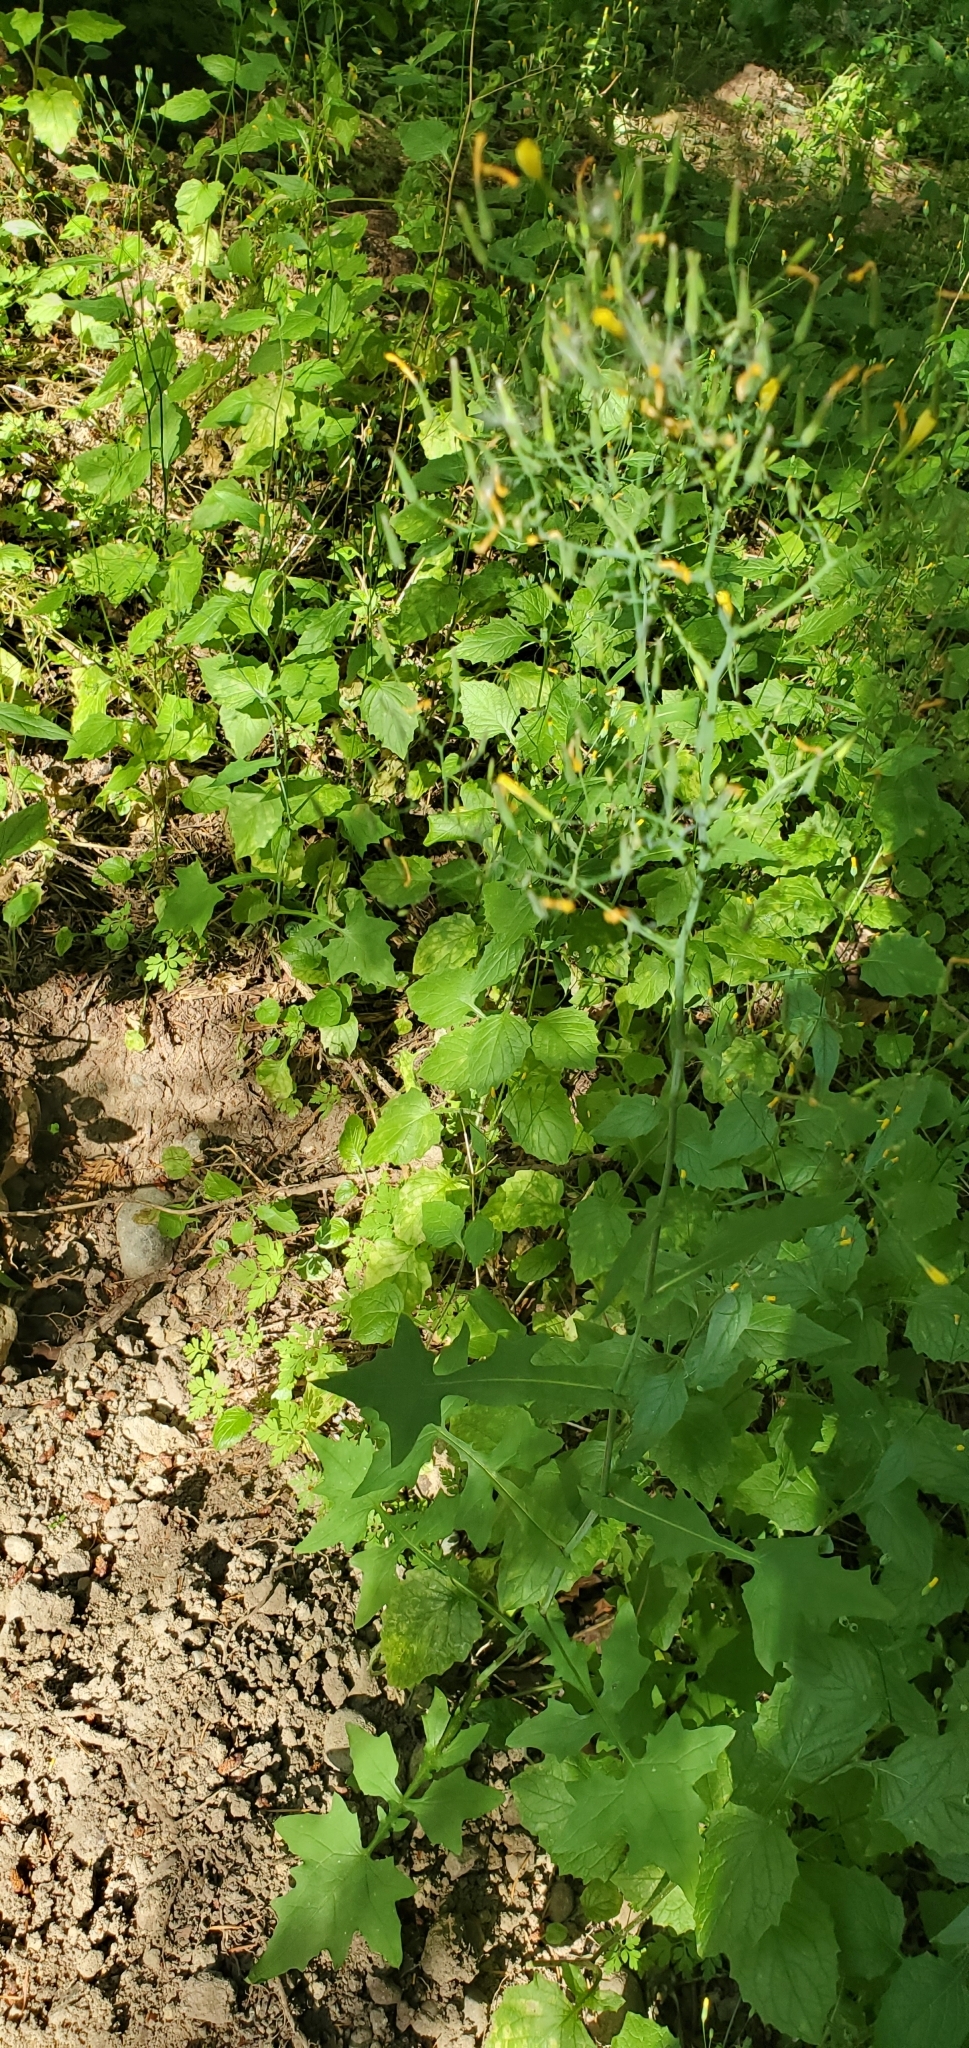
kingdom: Plantae
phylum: Tracheophyta
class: Magnoliopsida
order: Asterales
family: Asteraceae
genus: Lapsana
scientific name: Lapsana communis
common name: Nipplewort
